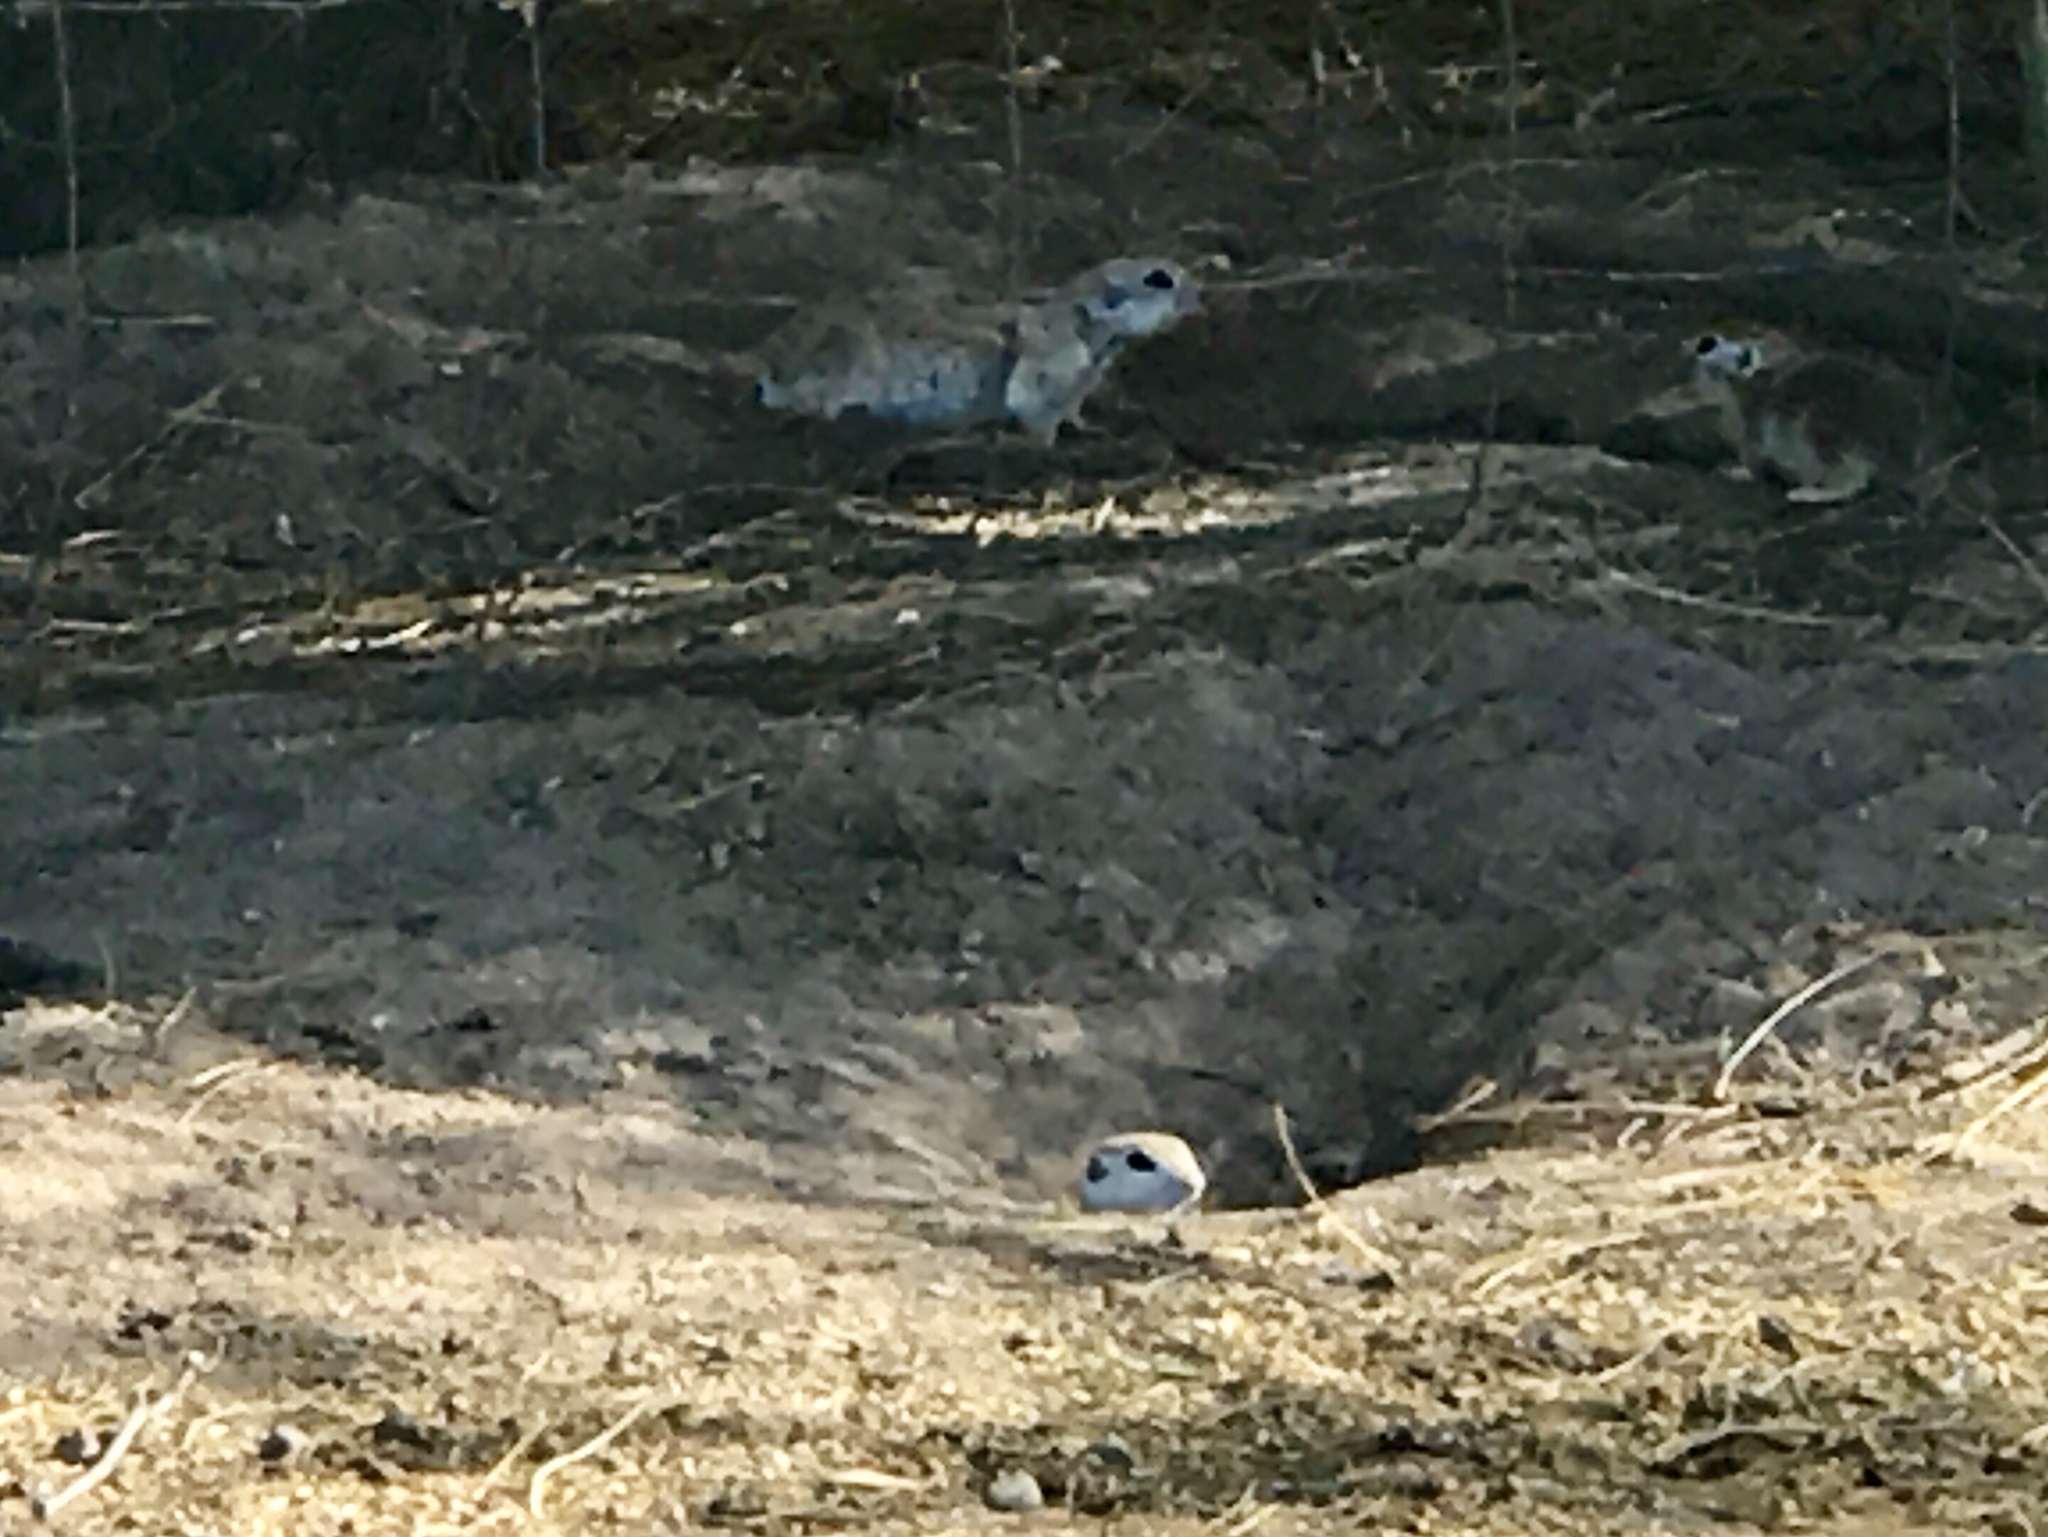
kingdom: Animalia
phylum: Chordata
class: Mammalia
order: Rodentia
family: Sciuridae
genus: Xerospermophilus
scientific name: Xerospermophilus tereticaudus
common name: Round-tailed ground squirrel
